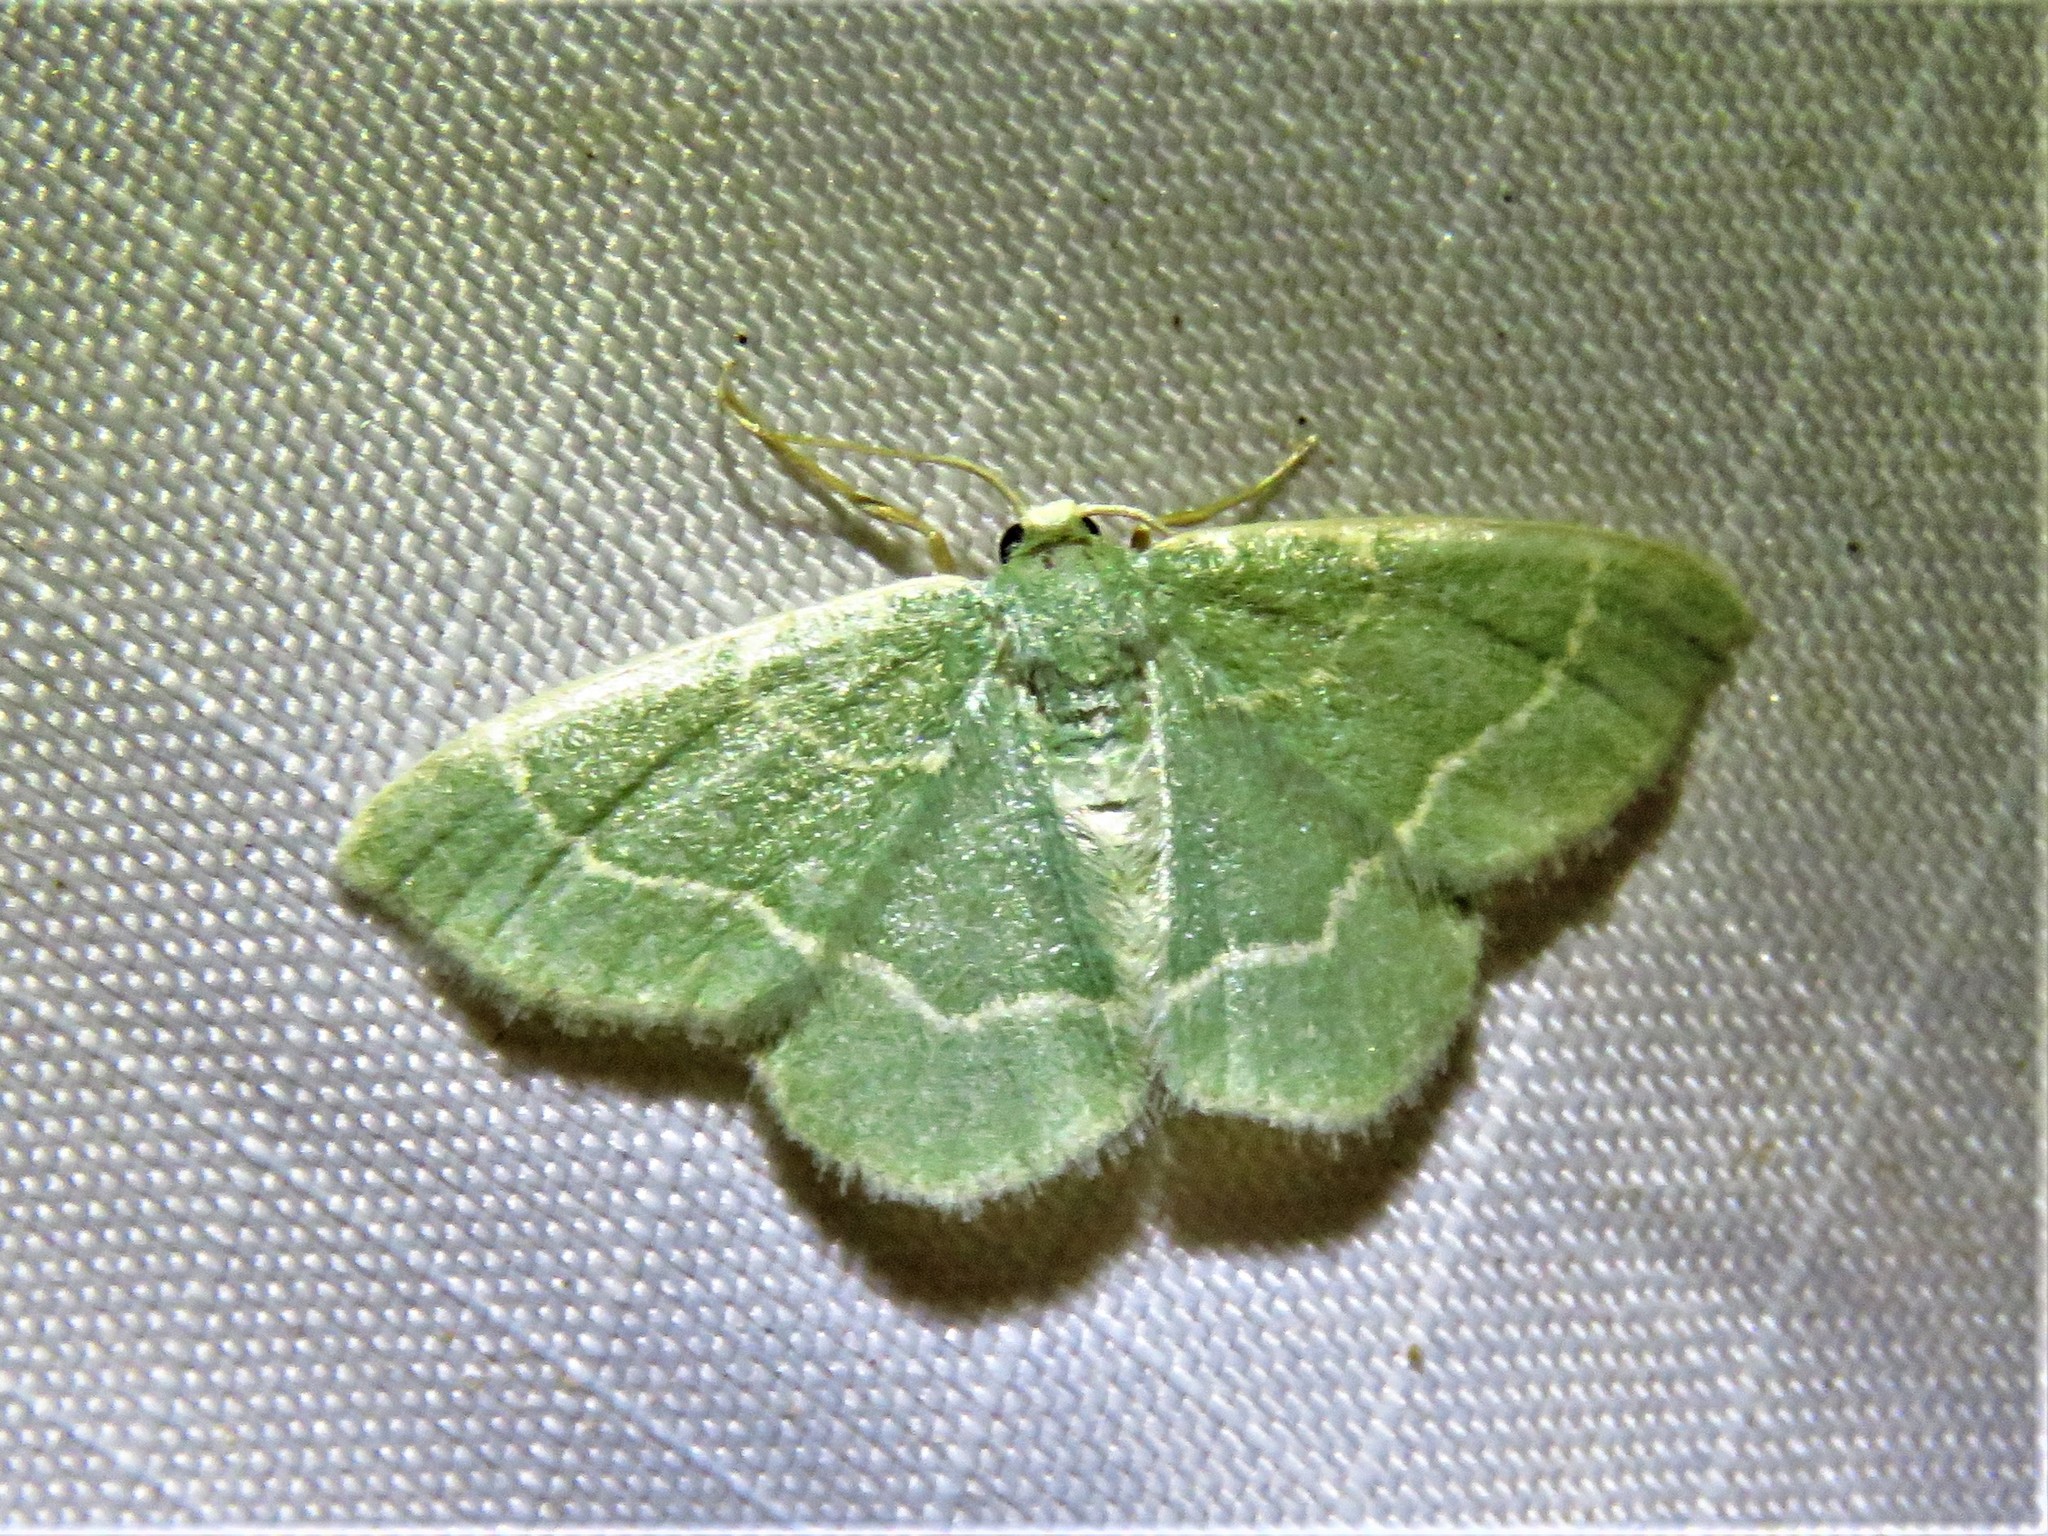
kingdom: Animalia
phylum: Arthropoda
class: Insecta
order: Lepidoptera
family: Geometridae
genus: Chlorochlamys
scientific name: Chlorochlamys phyllinaria
